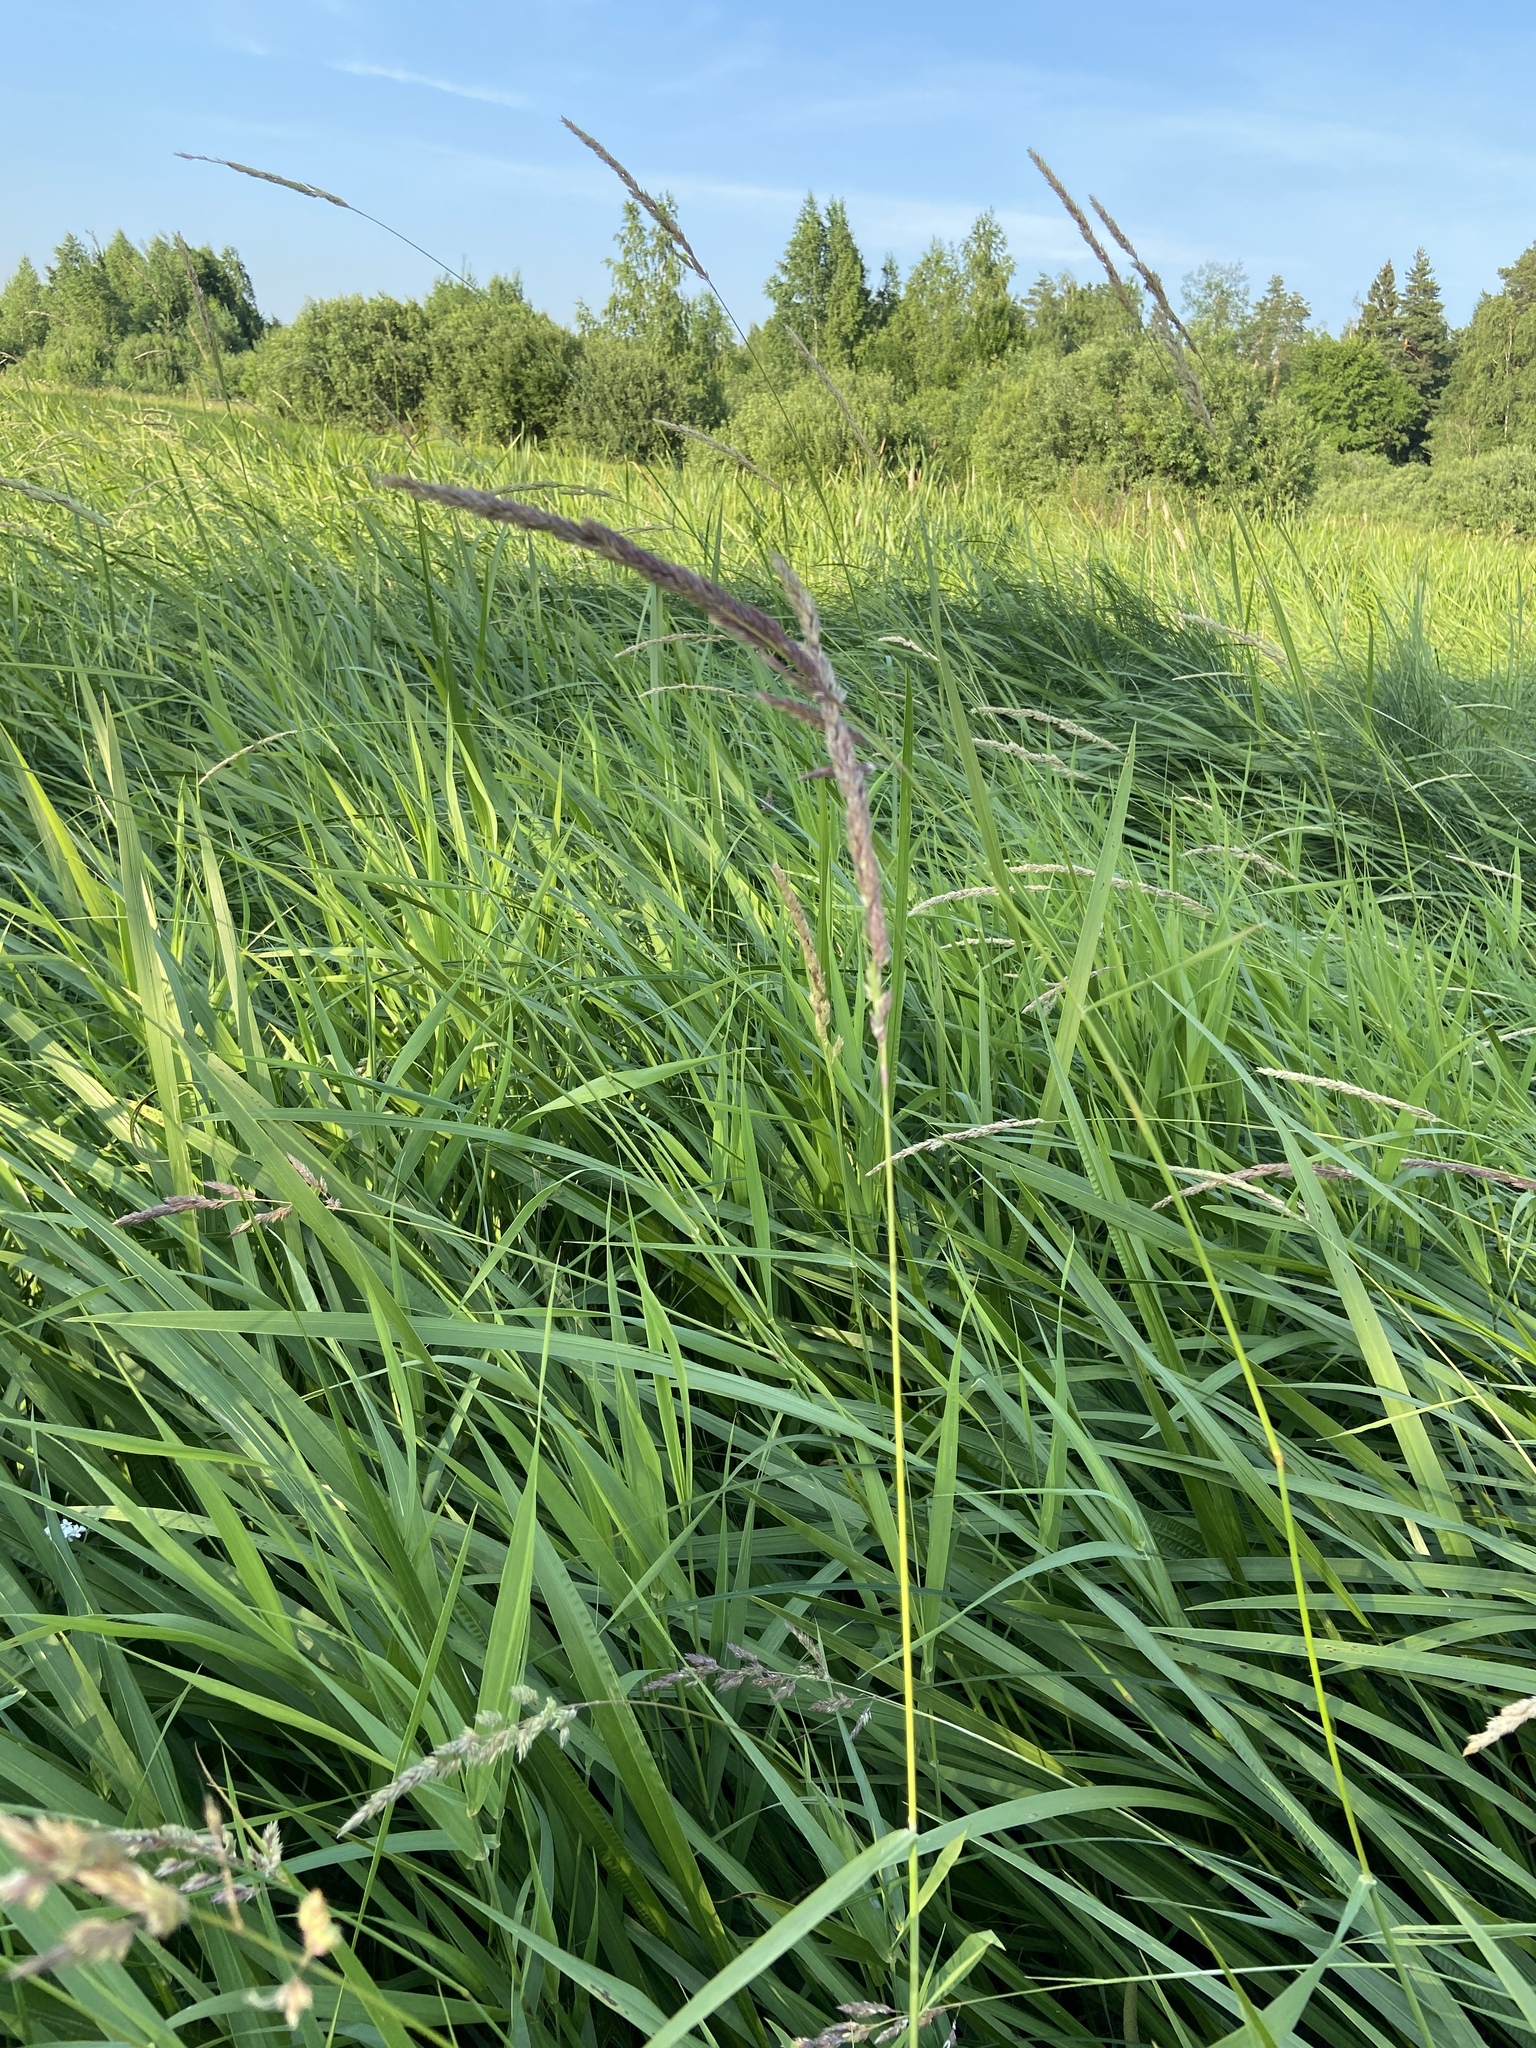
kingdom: Plantae
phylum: Tracheophyta
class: Liliopsida
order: Poales
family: Poaceae
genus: Phalaris
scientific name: Phalaris arundinacea
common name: Reed canary-grass
